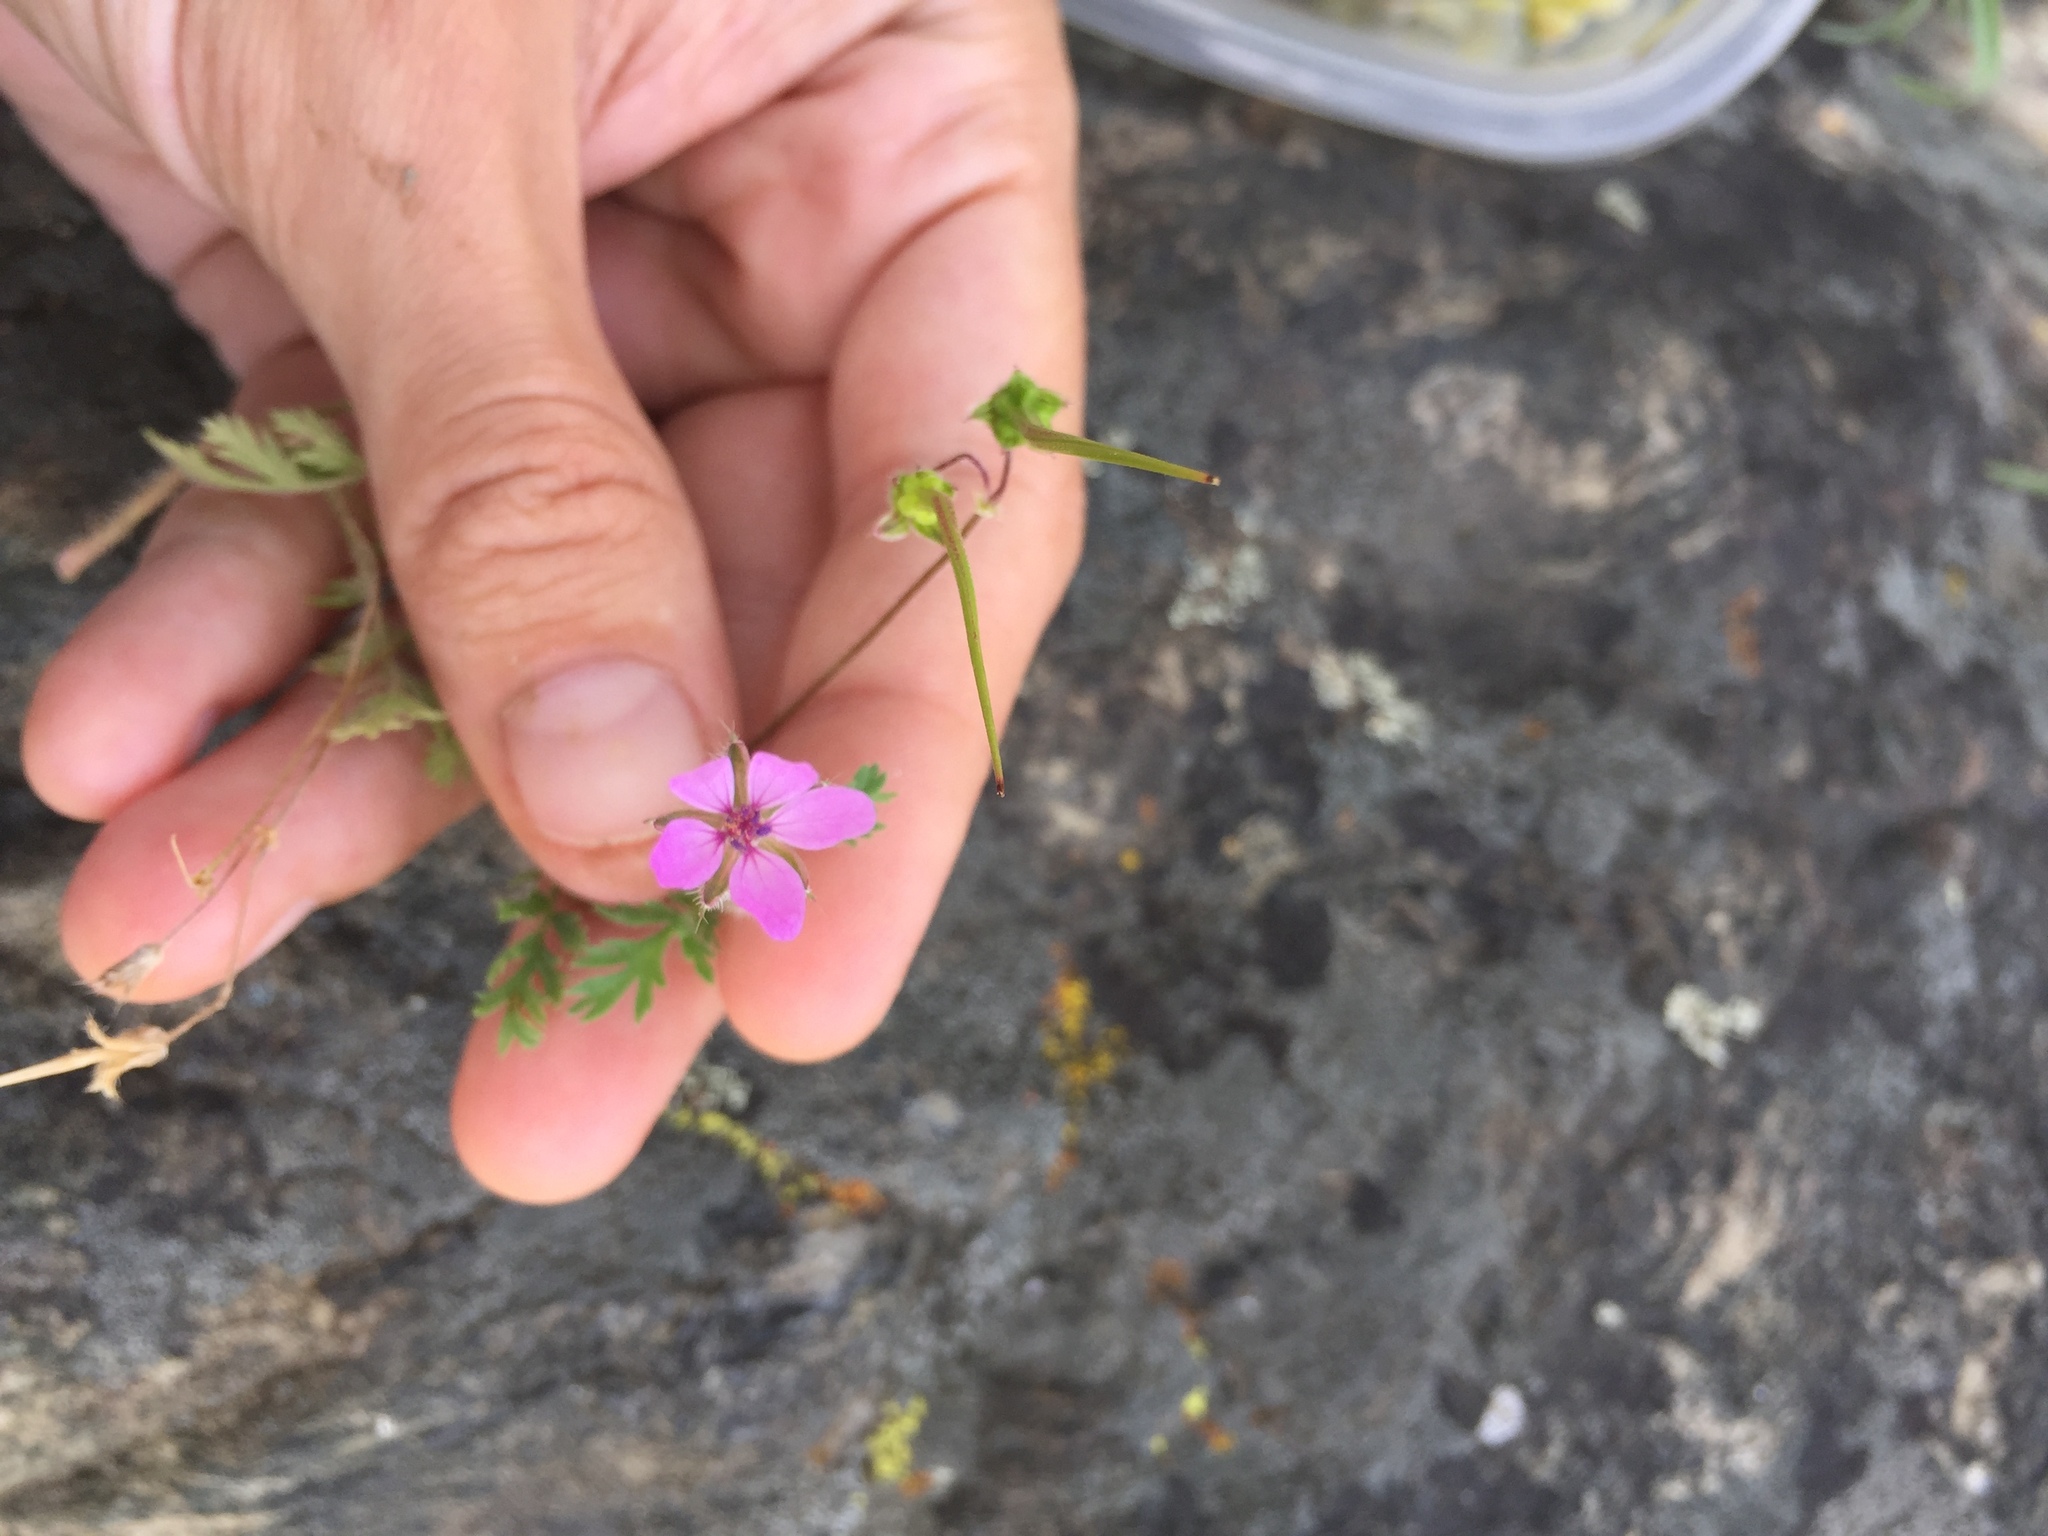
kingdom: Plantae
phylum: Tracheophyta
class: Magnoliopsida
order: Geraniales
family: Geraniaceae
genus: Erodium
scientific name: Erodium cicutarium
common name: Common stork's-bill
